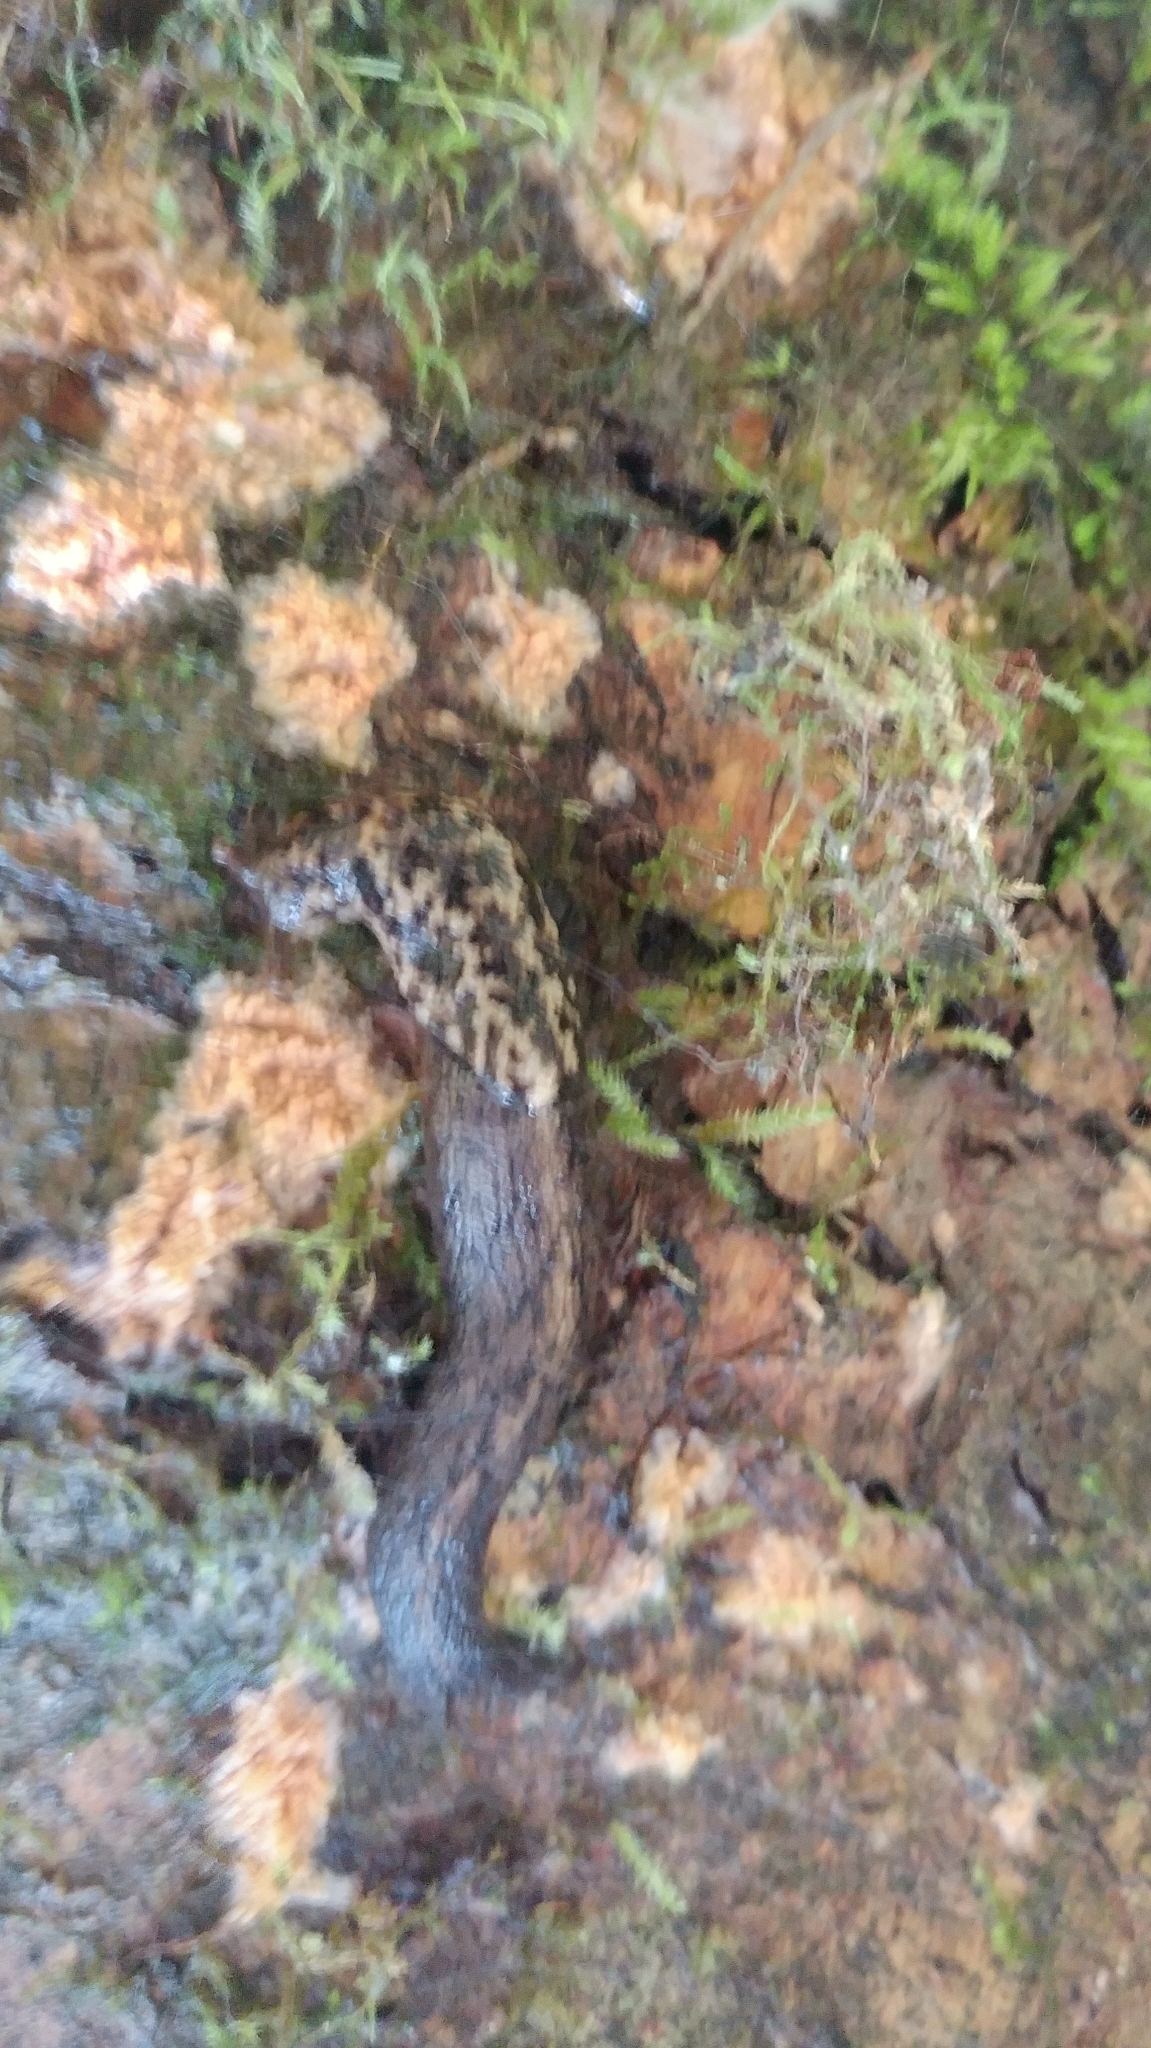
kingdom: Animalia
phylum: Mollusca
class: Gastropoda
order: Stylommatophora
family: Ariolimacidae
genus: Prophysaon
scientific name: Prophysaon andersonii
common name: Reticulate taildropper
